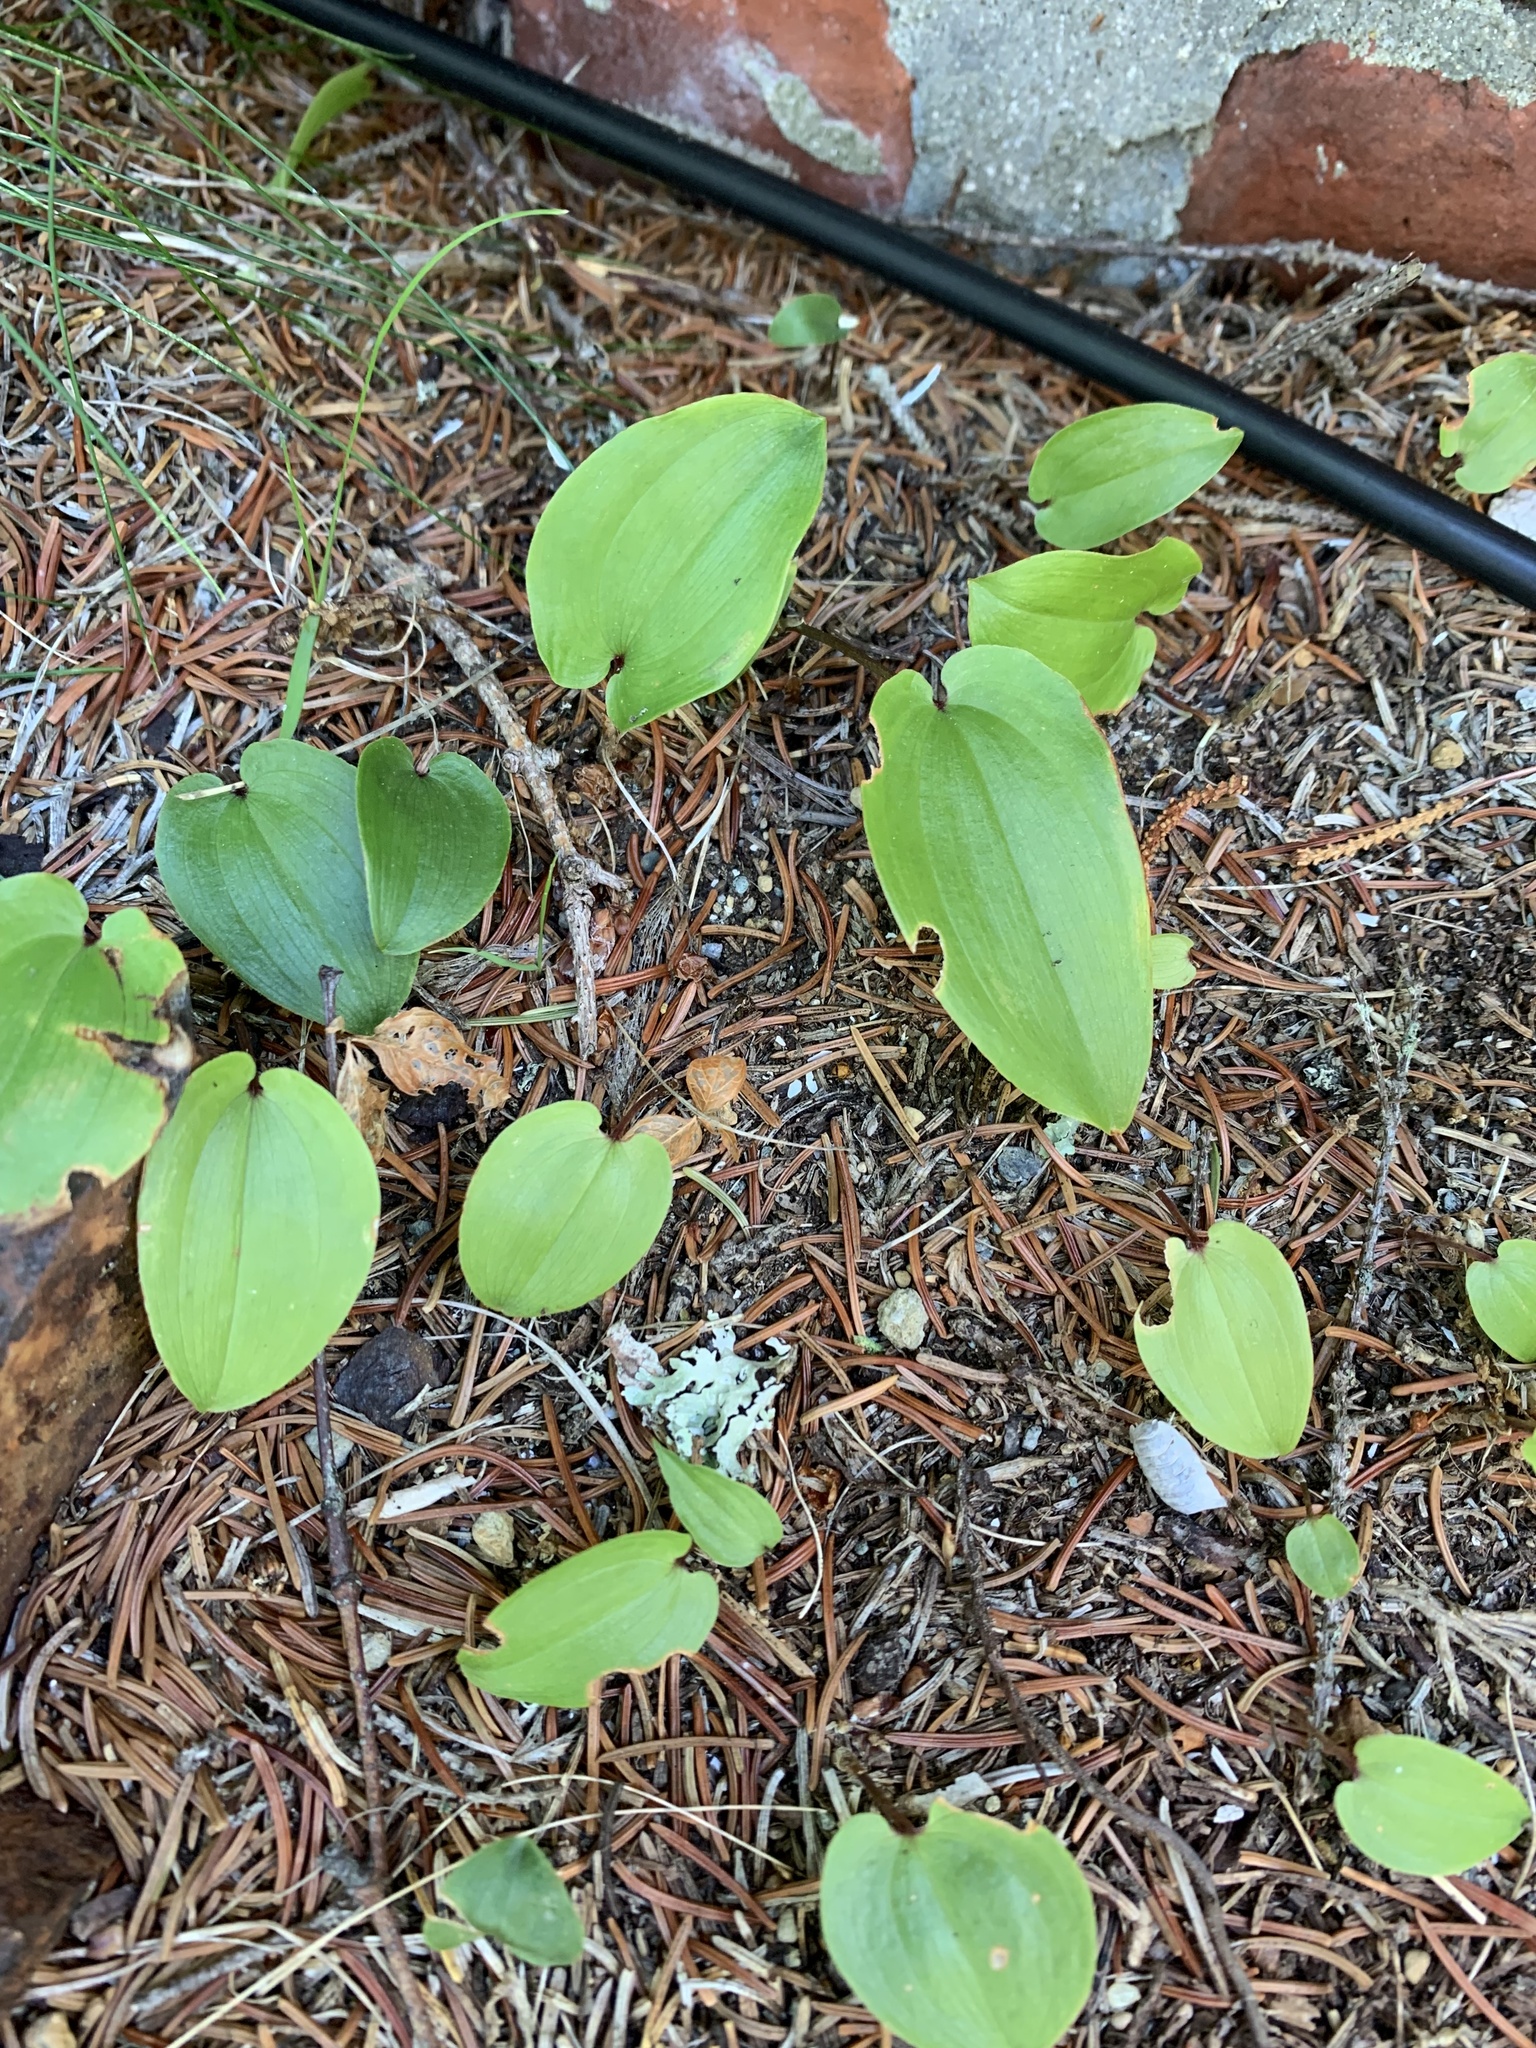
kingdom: Plantae
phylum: Tracheophyta
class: Liliopsida
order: Asparagales
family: Asparagaceae
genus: Maianthemum
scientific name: Maianthemum canadense
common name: False lily-of-the-valley
